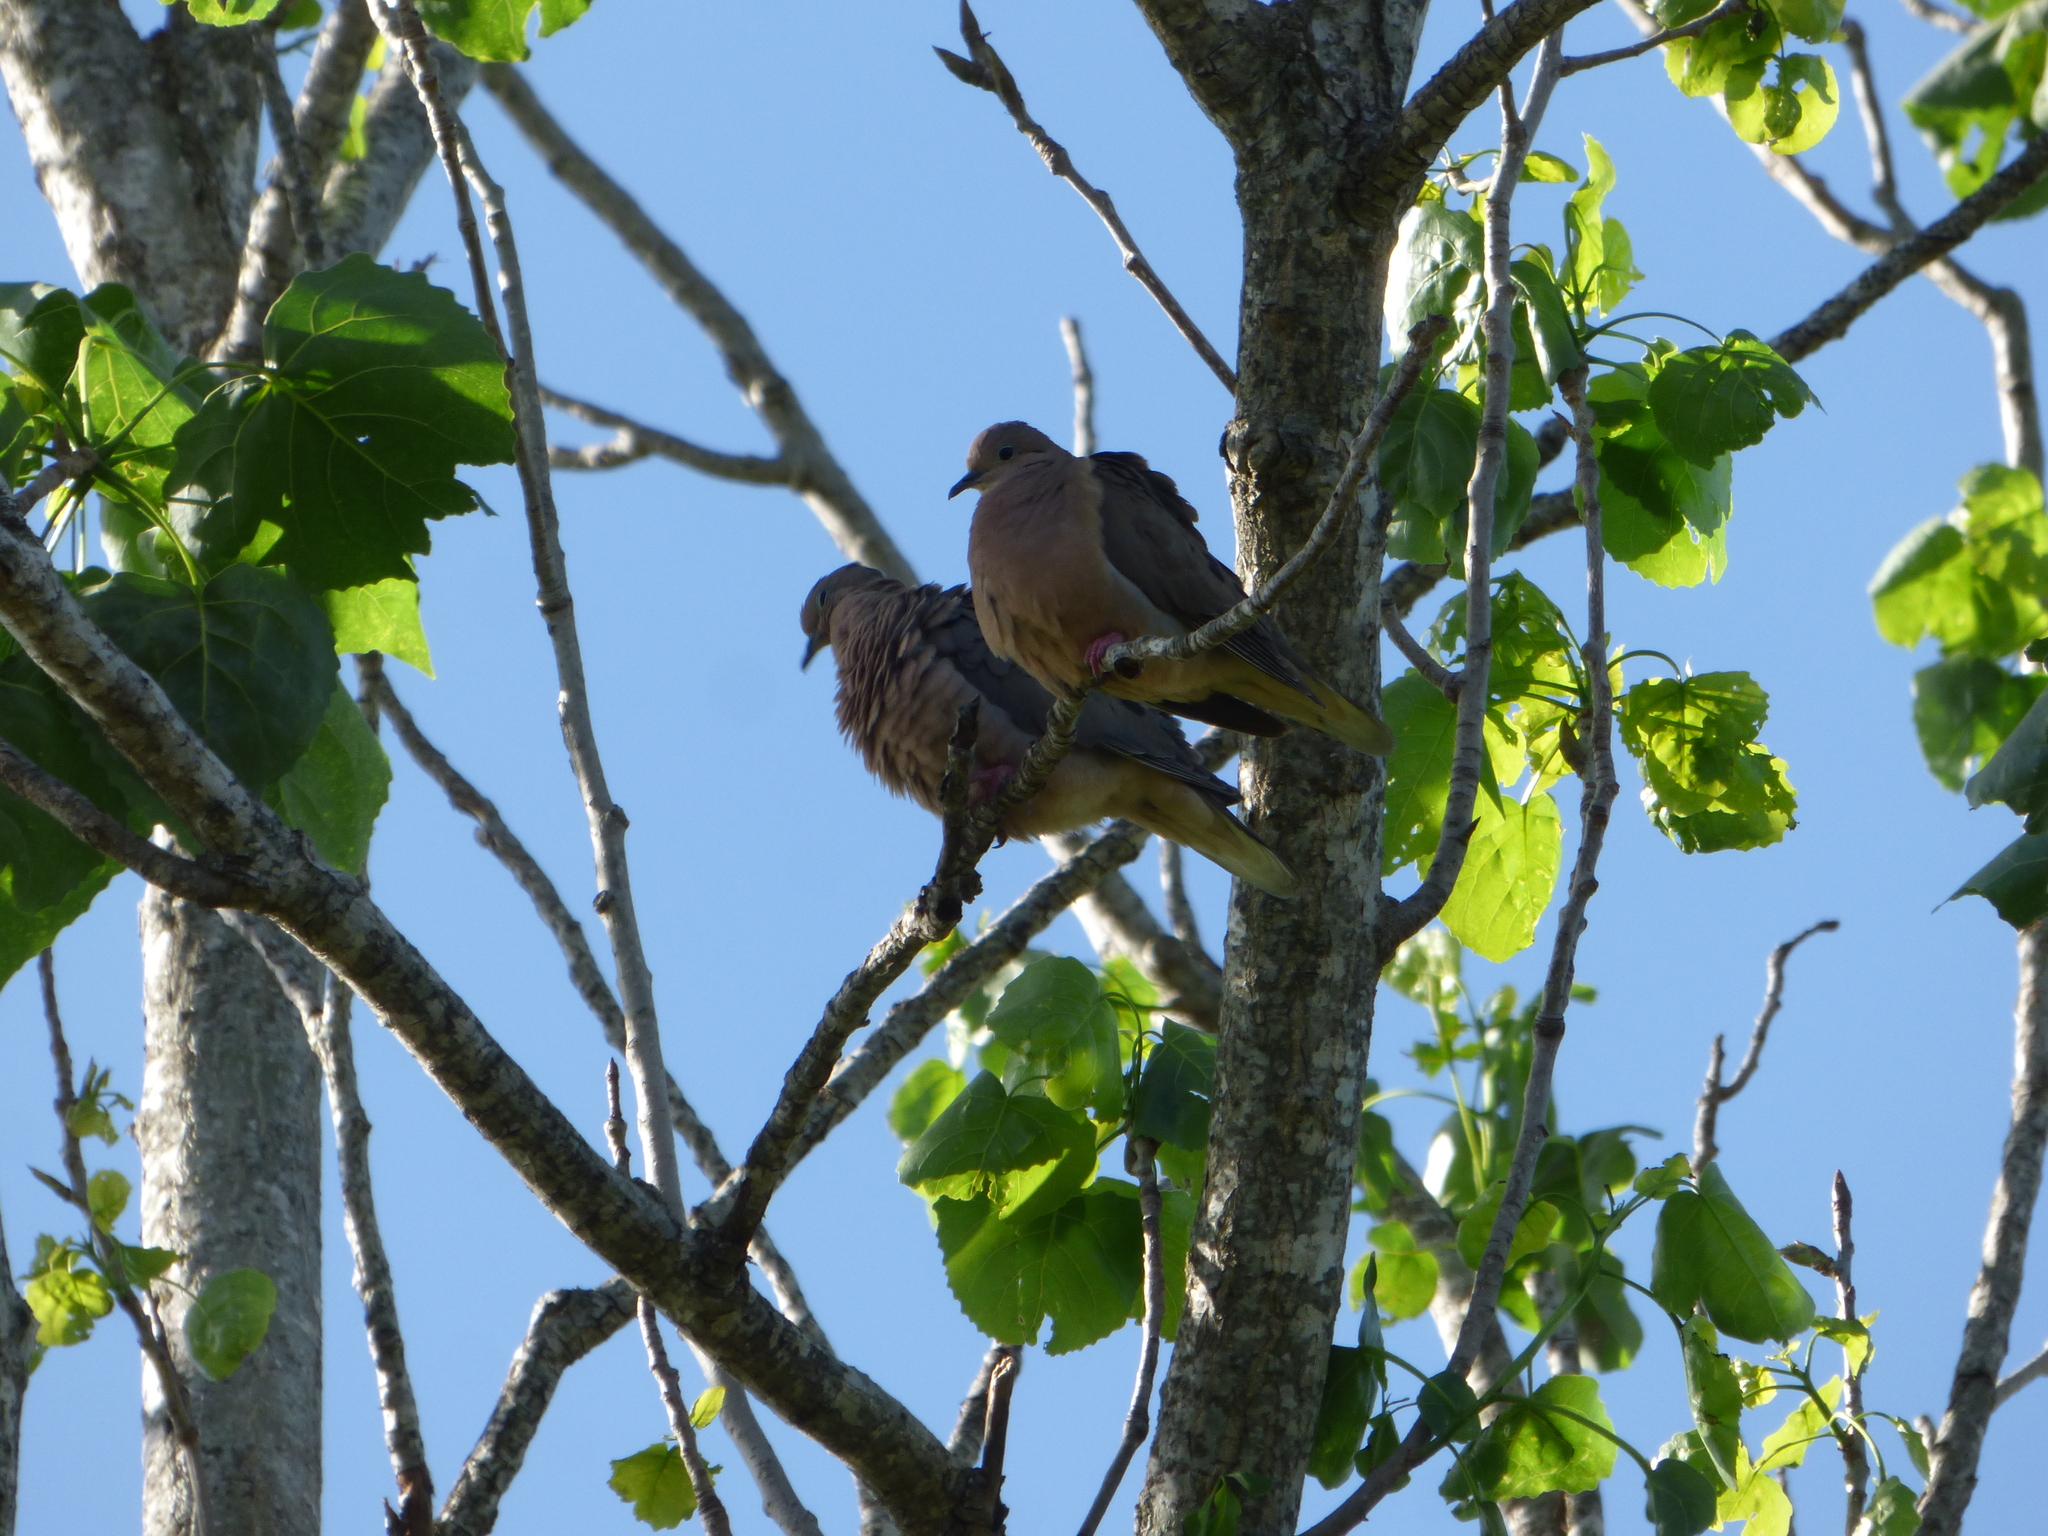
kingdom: Animalia
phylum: Chordata
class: Aves
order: Columbiformes
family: Columbidae
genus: Zenaida
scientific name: Zenaida auriculata
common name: Eared dove
